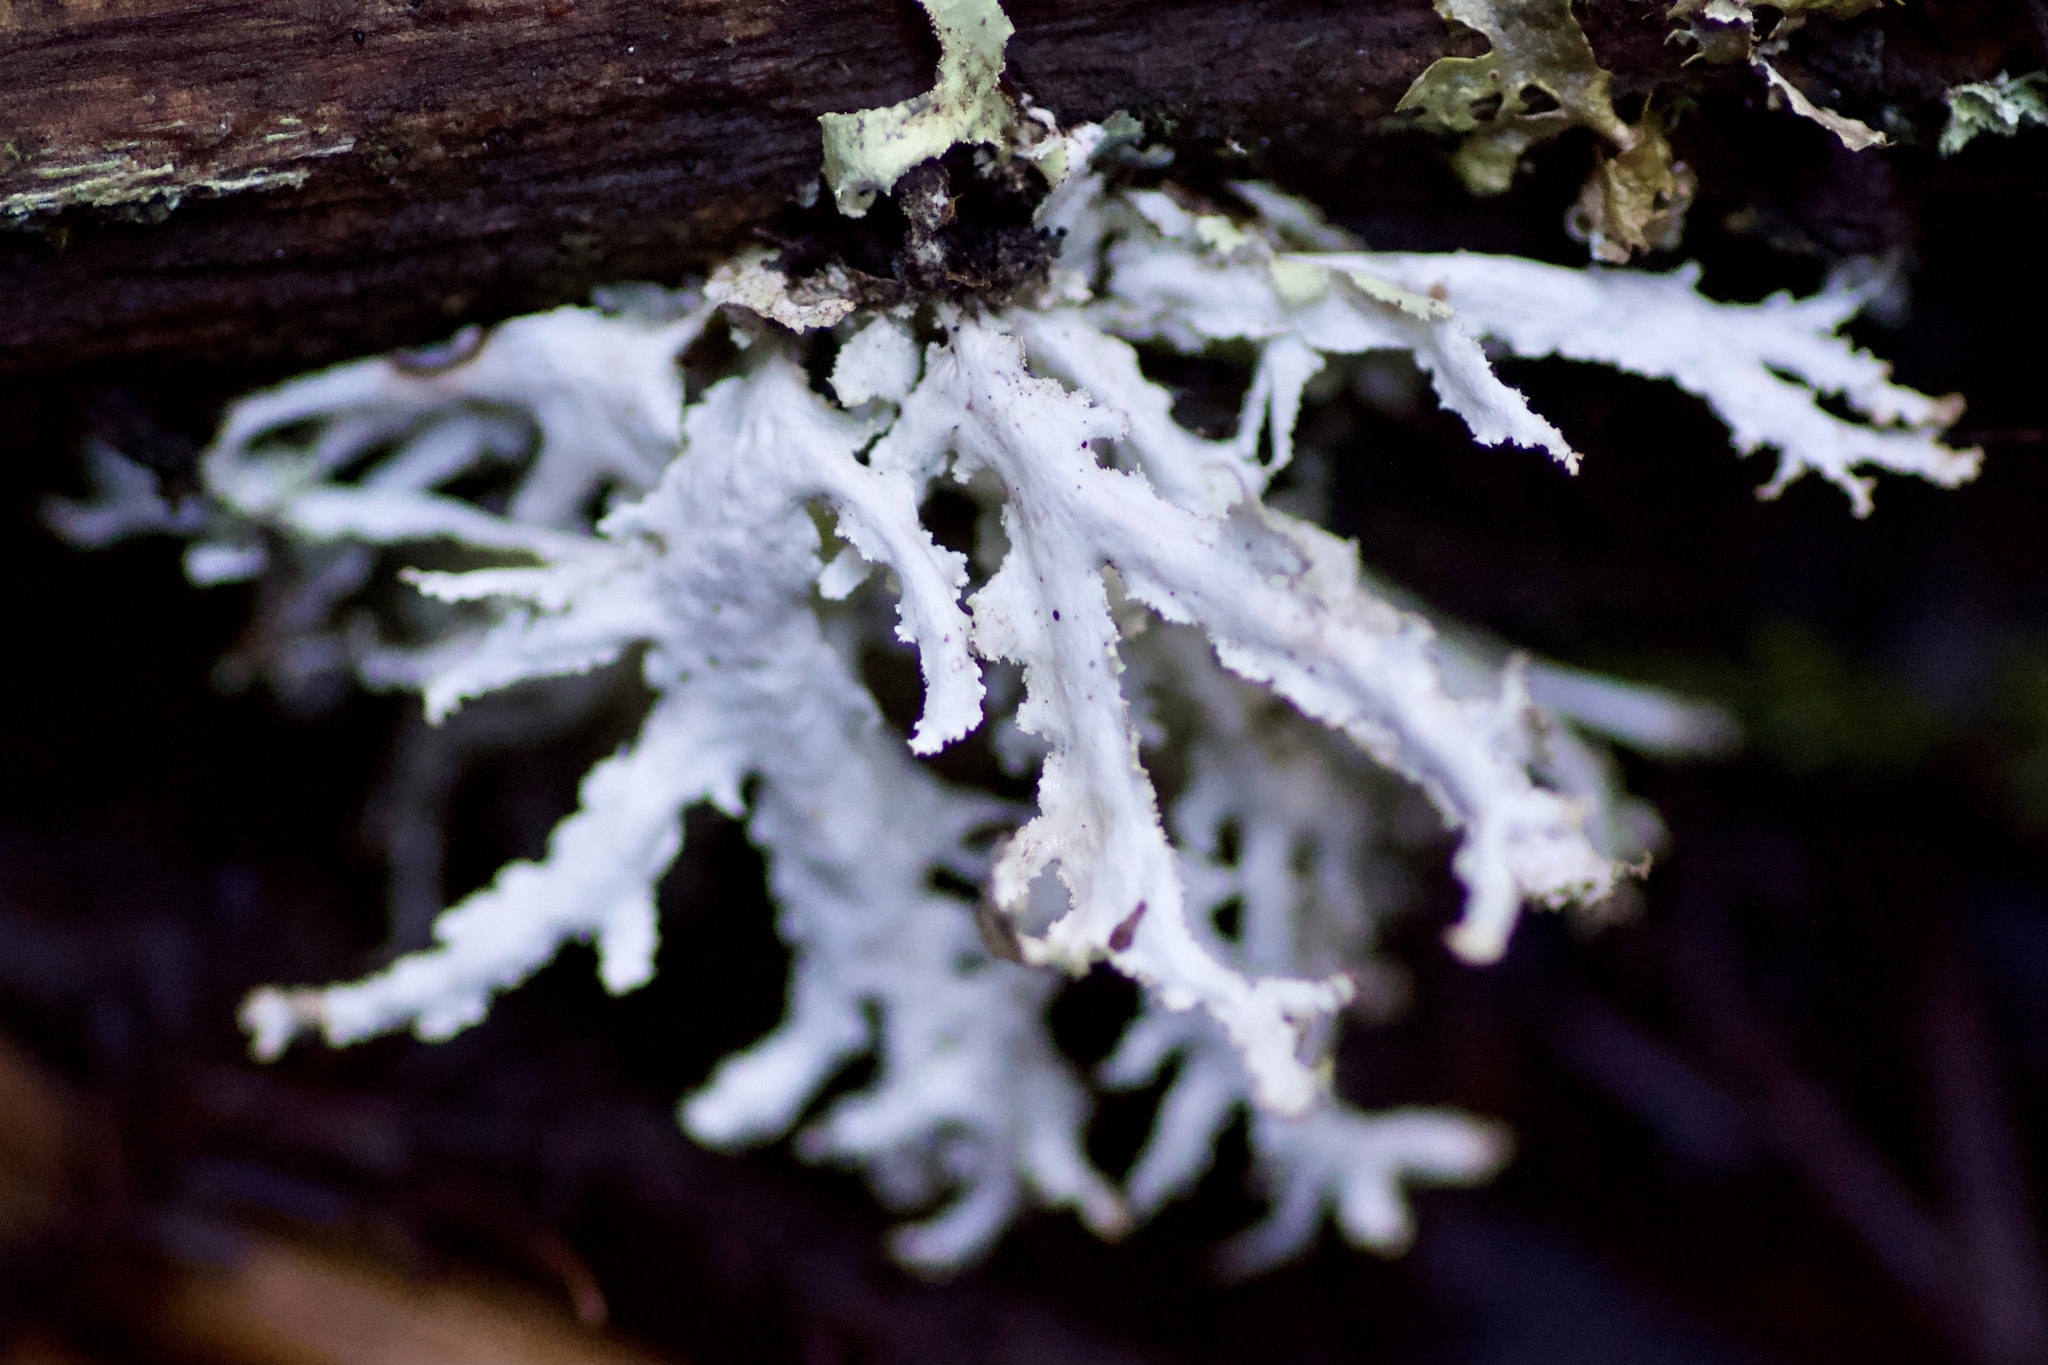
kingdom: Fungi
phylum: Ascomycota
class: Lecanoromycetes
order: Lecanorales
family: Parmeliaceae
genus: Platismatia
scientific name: Platismatia herrei
